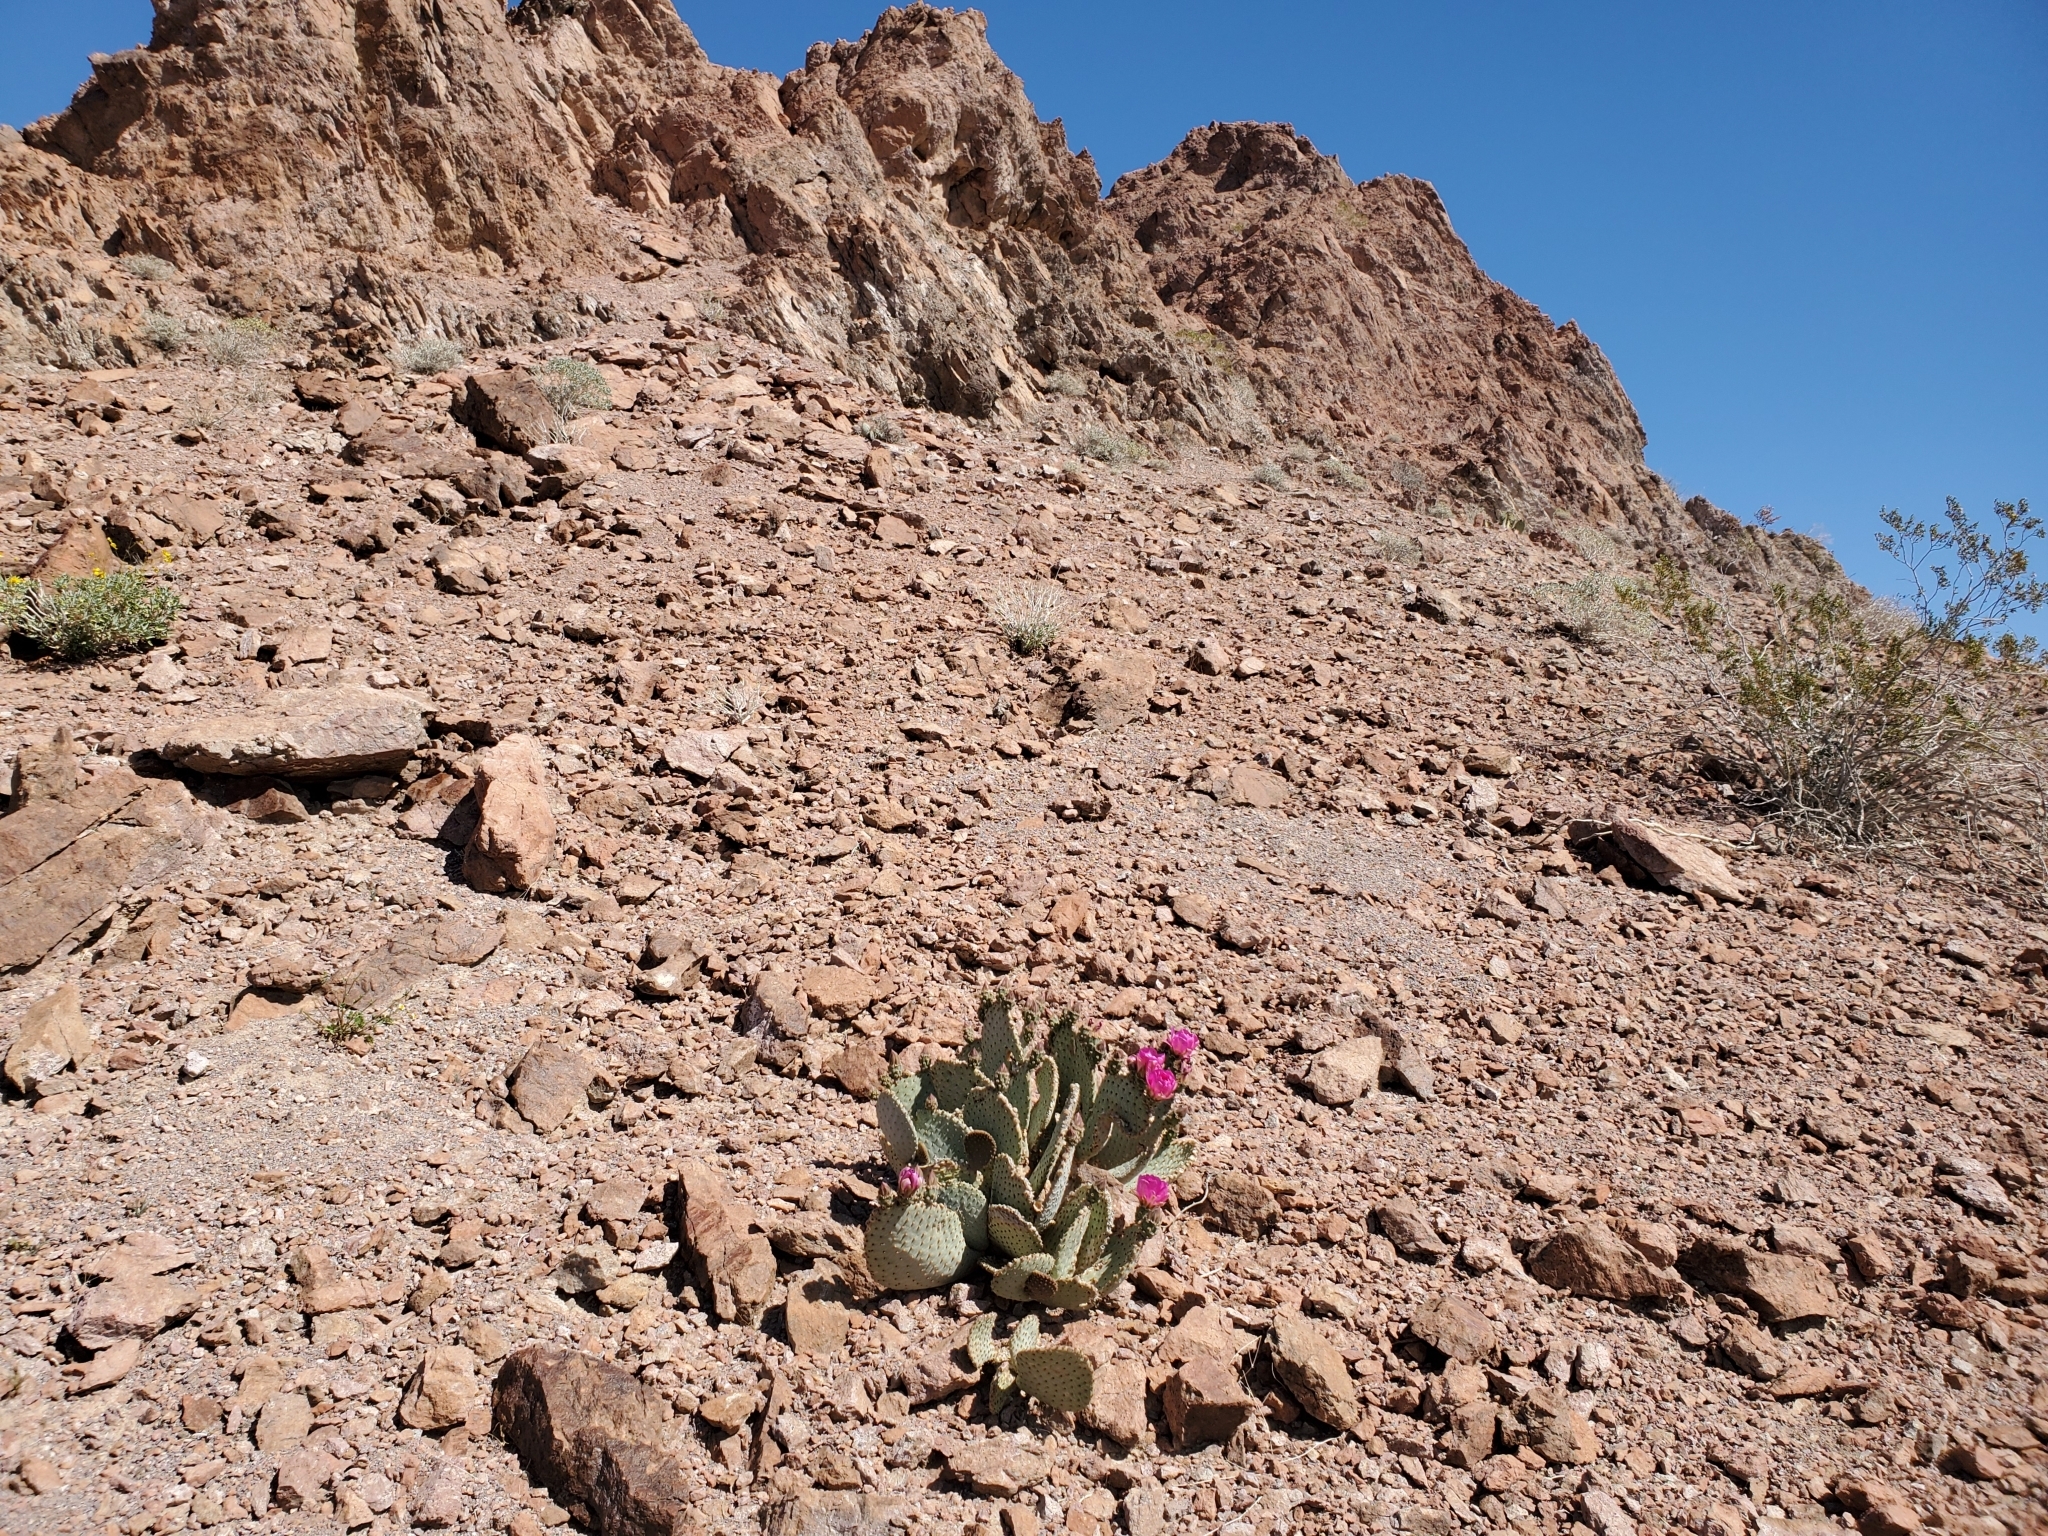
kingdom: Plantae
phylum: Tracheophyta
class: Magnoliopsida
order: Caryophyllales
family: Cactaceae
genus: Opuntia
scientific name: Opuntia basilaris
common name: Beavertail prickly-pear
